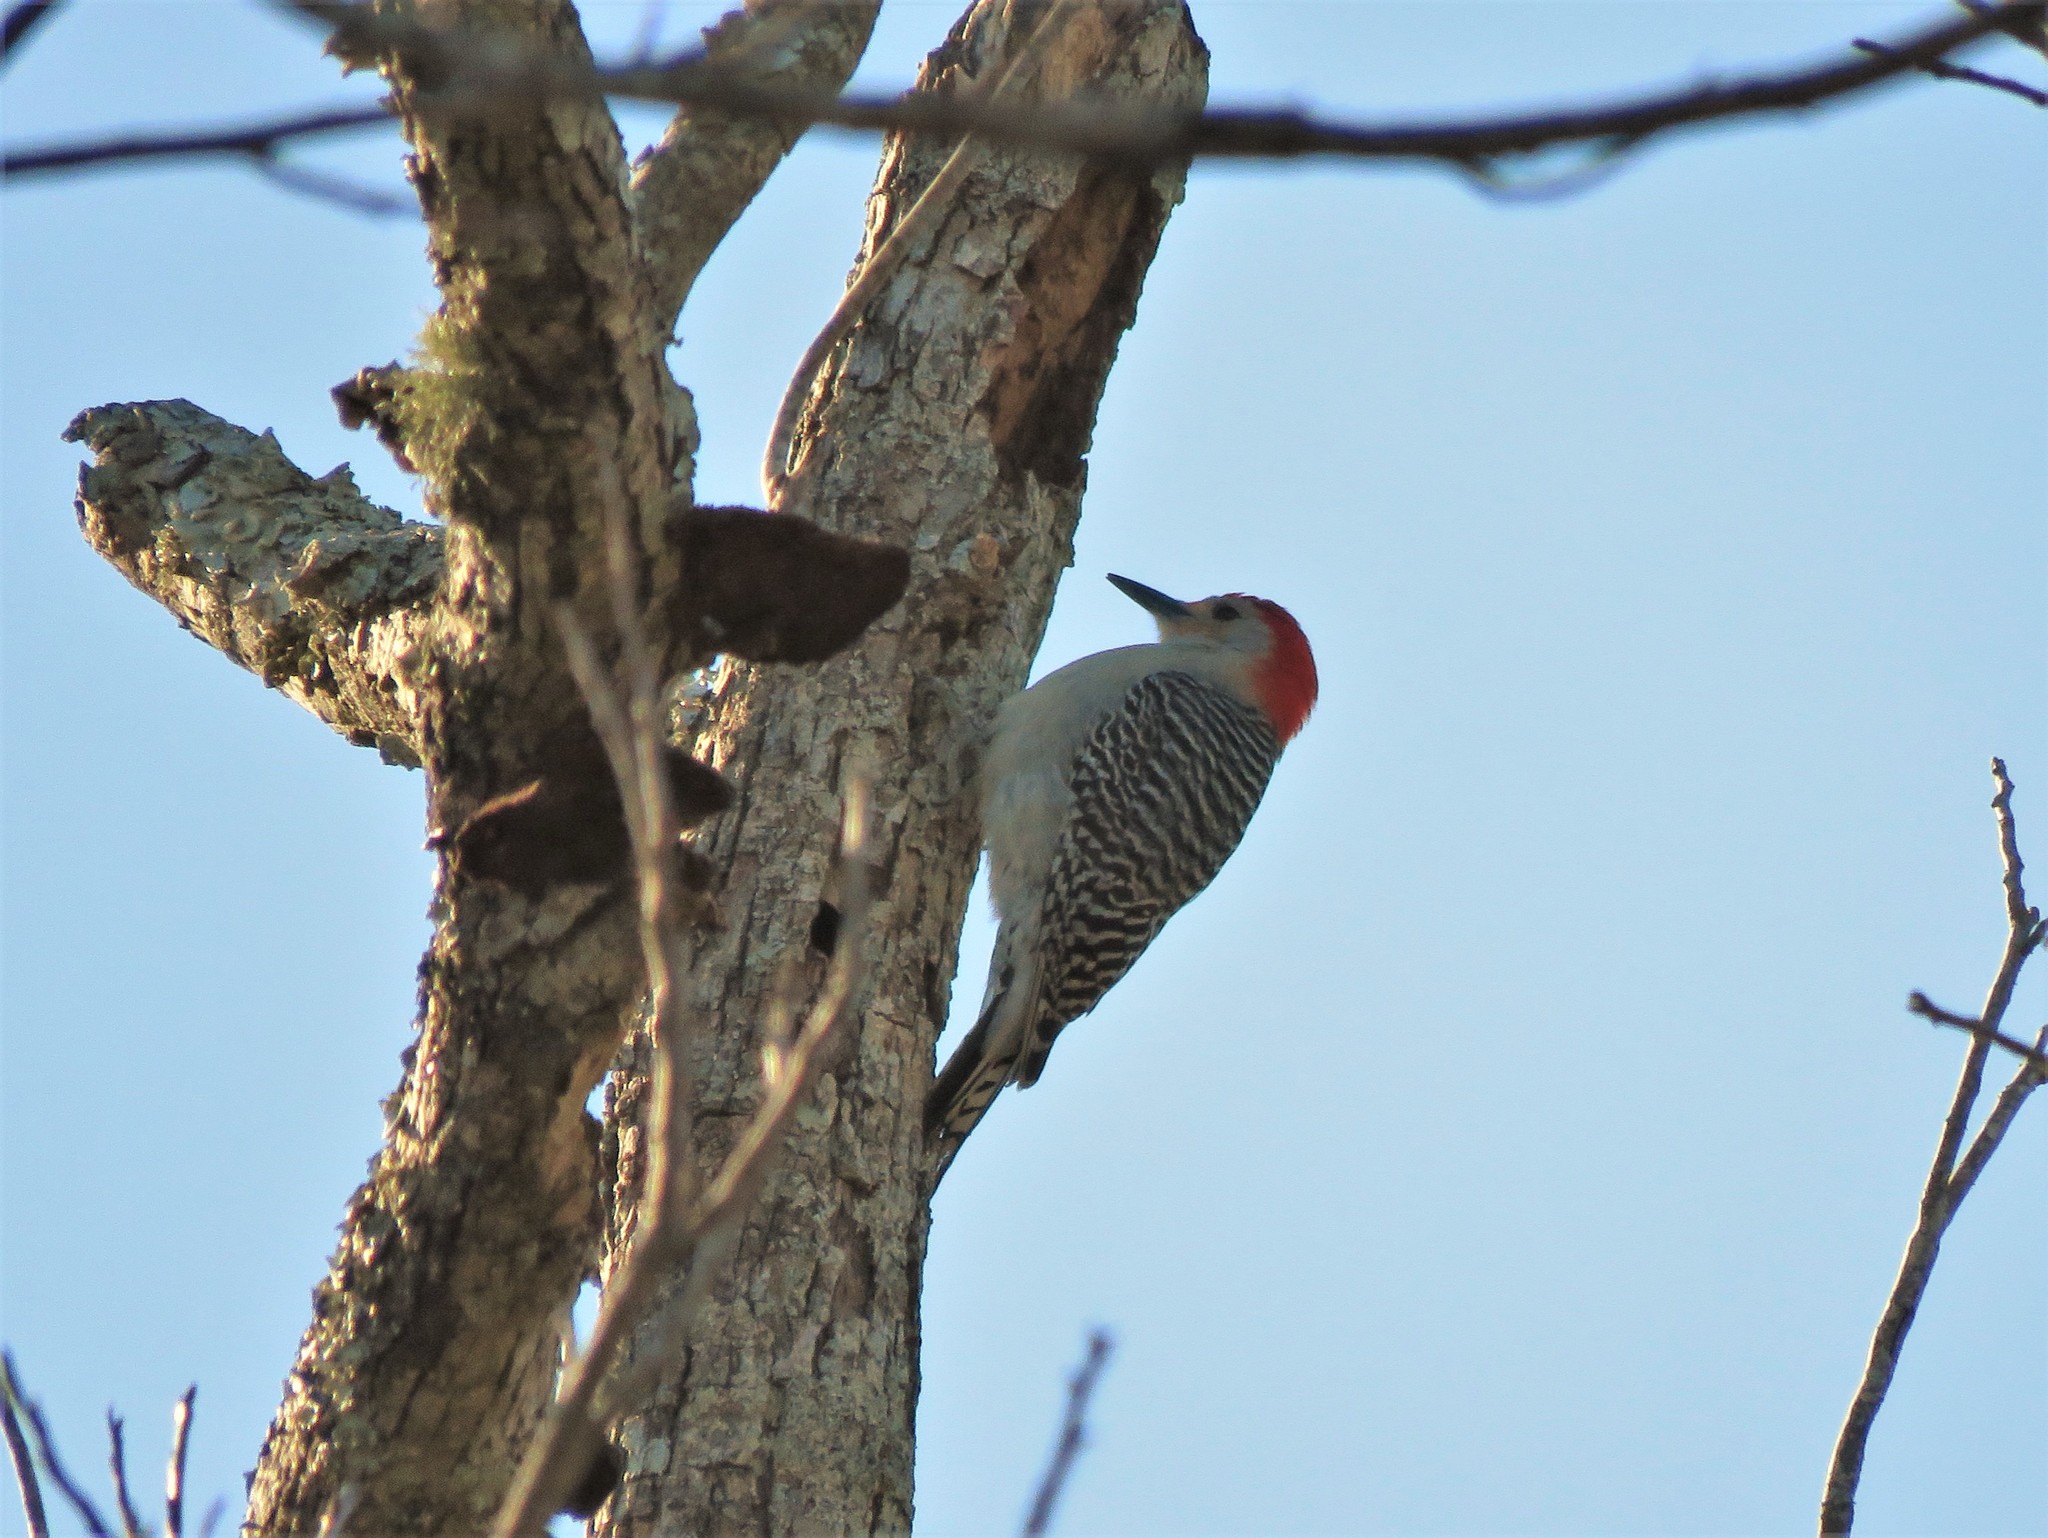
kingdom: Animalia
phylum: Chordata
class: Aves
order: Piciformes
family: Picidae
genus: Melanerpes
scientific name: Melanerpes carolinus
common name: Red-bellied woodpecker
